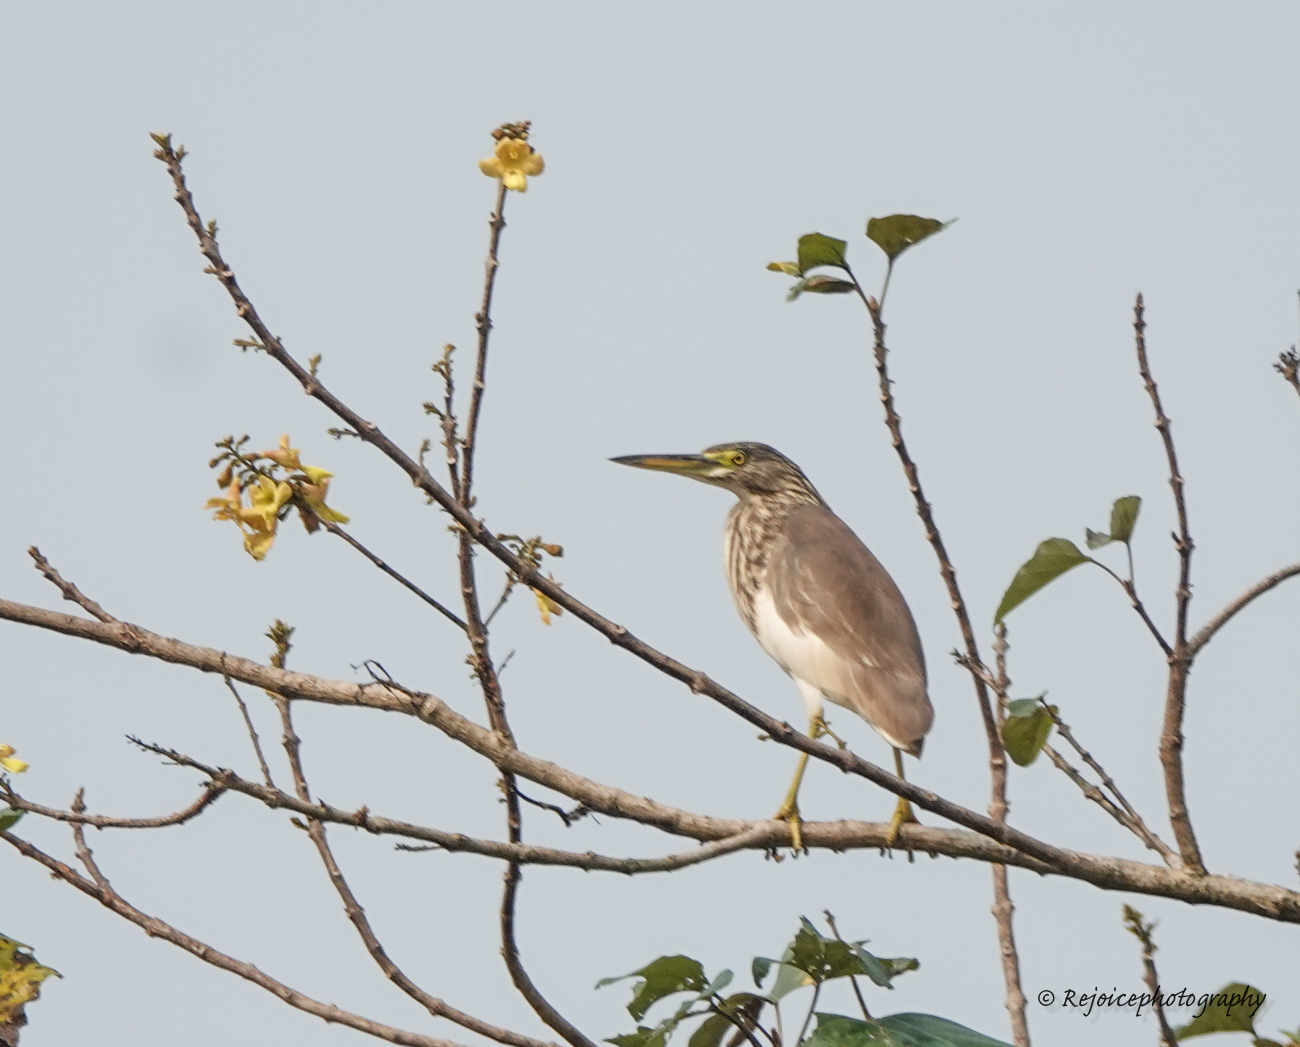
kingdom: Animalia
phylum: Chordata
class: Aves
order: Pelecaniformes
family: Ardeidae
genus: Ardeola
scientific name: Ardeola grayii
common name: Indian pond heron
